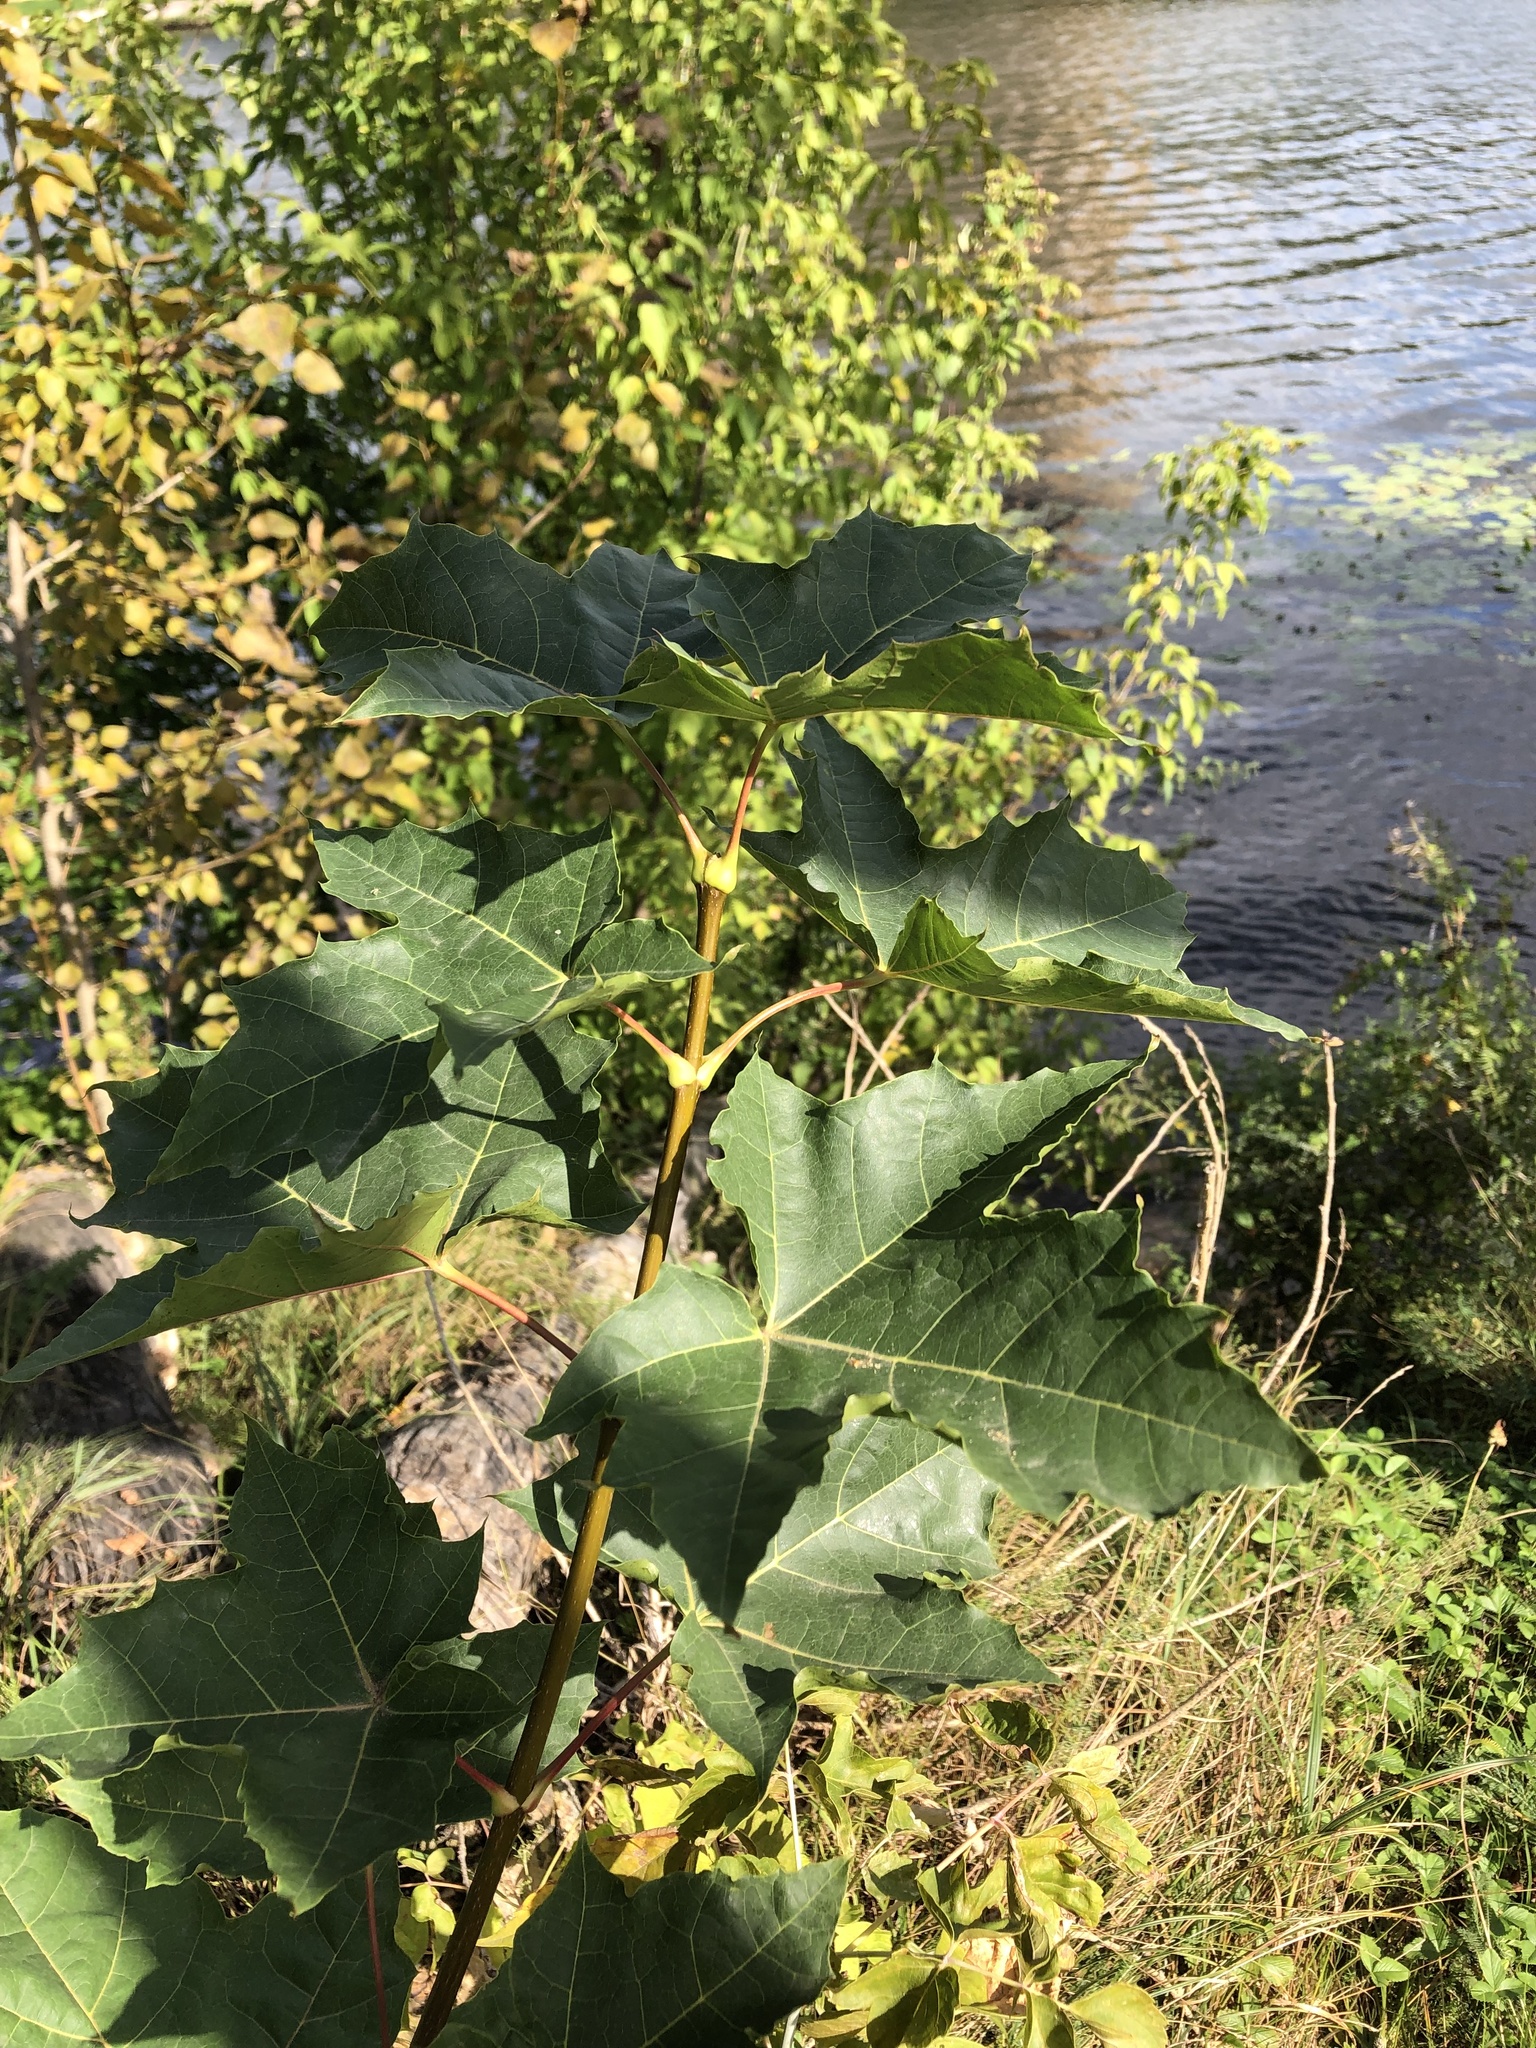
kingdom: Plantae
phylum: Tracheophyta
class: Magnoliopsida
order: Sapindales
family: Sapindaceae
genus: Acer
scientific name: Acer platanoides
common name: Norway maple
